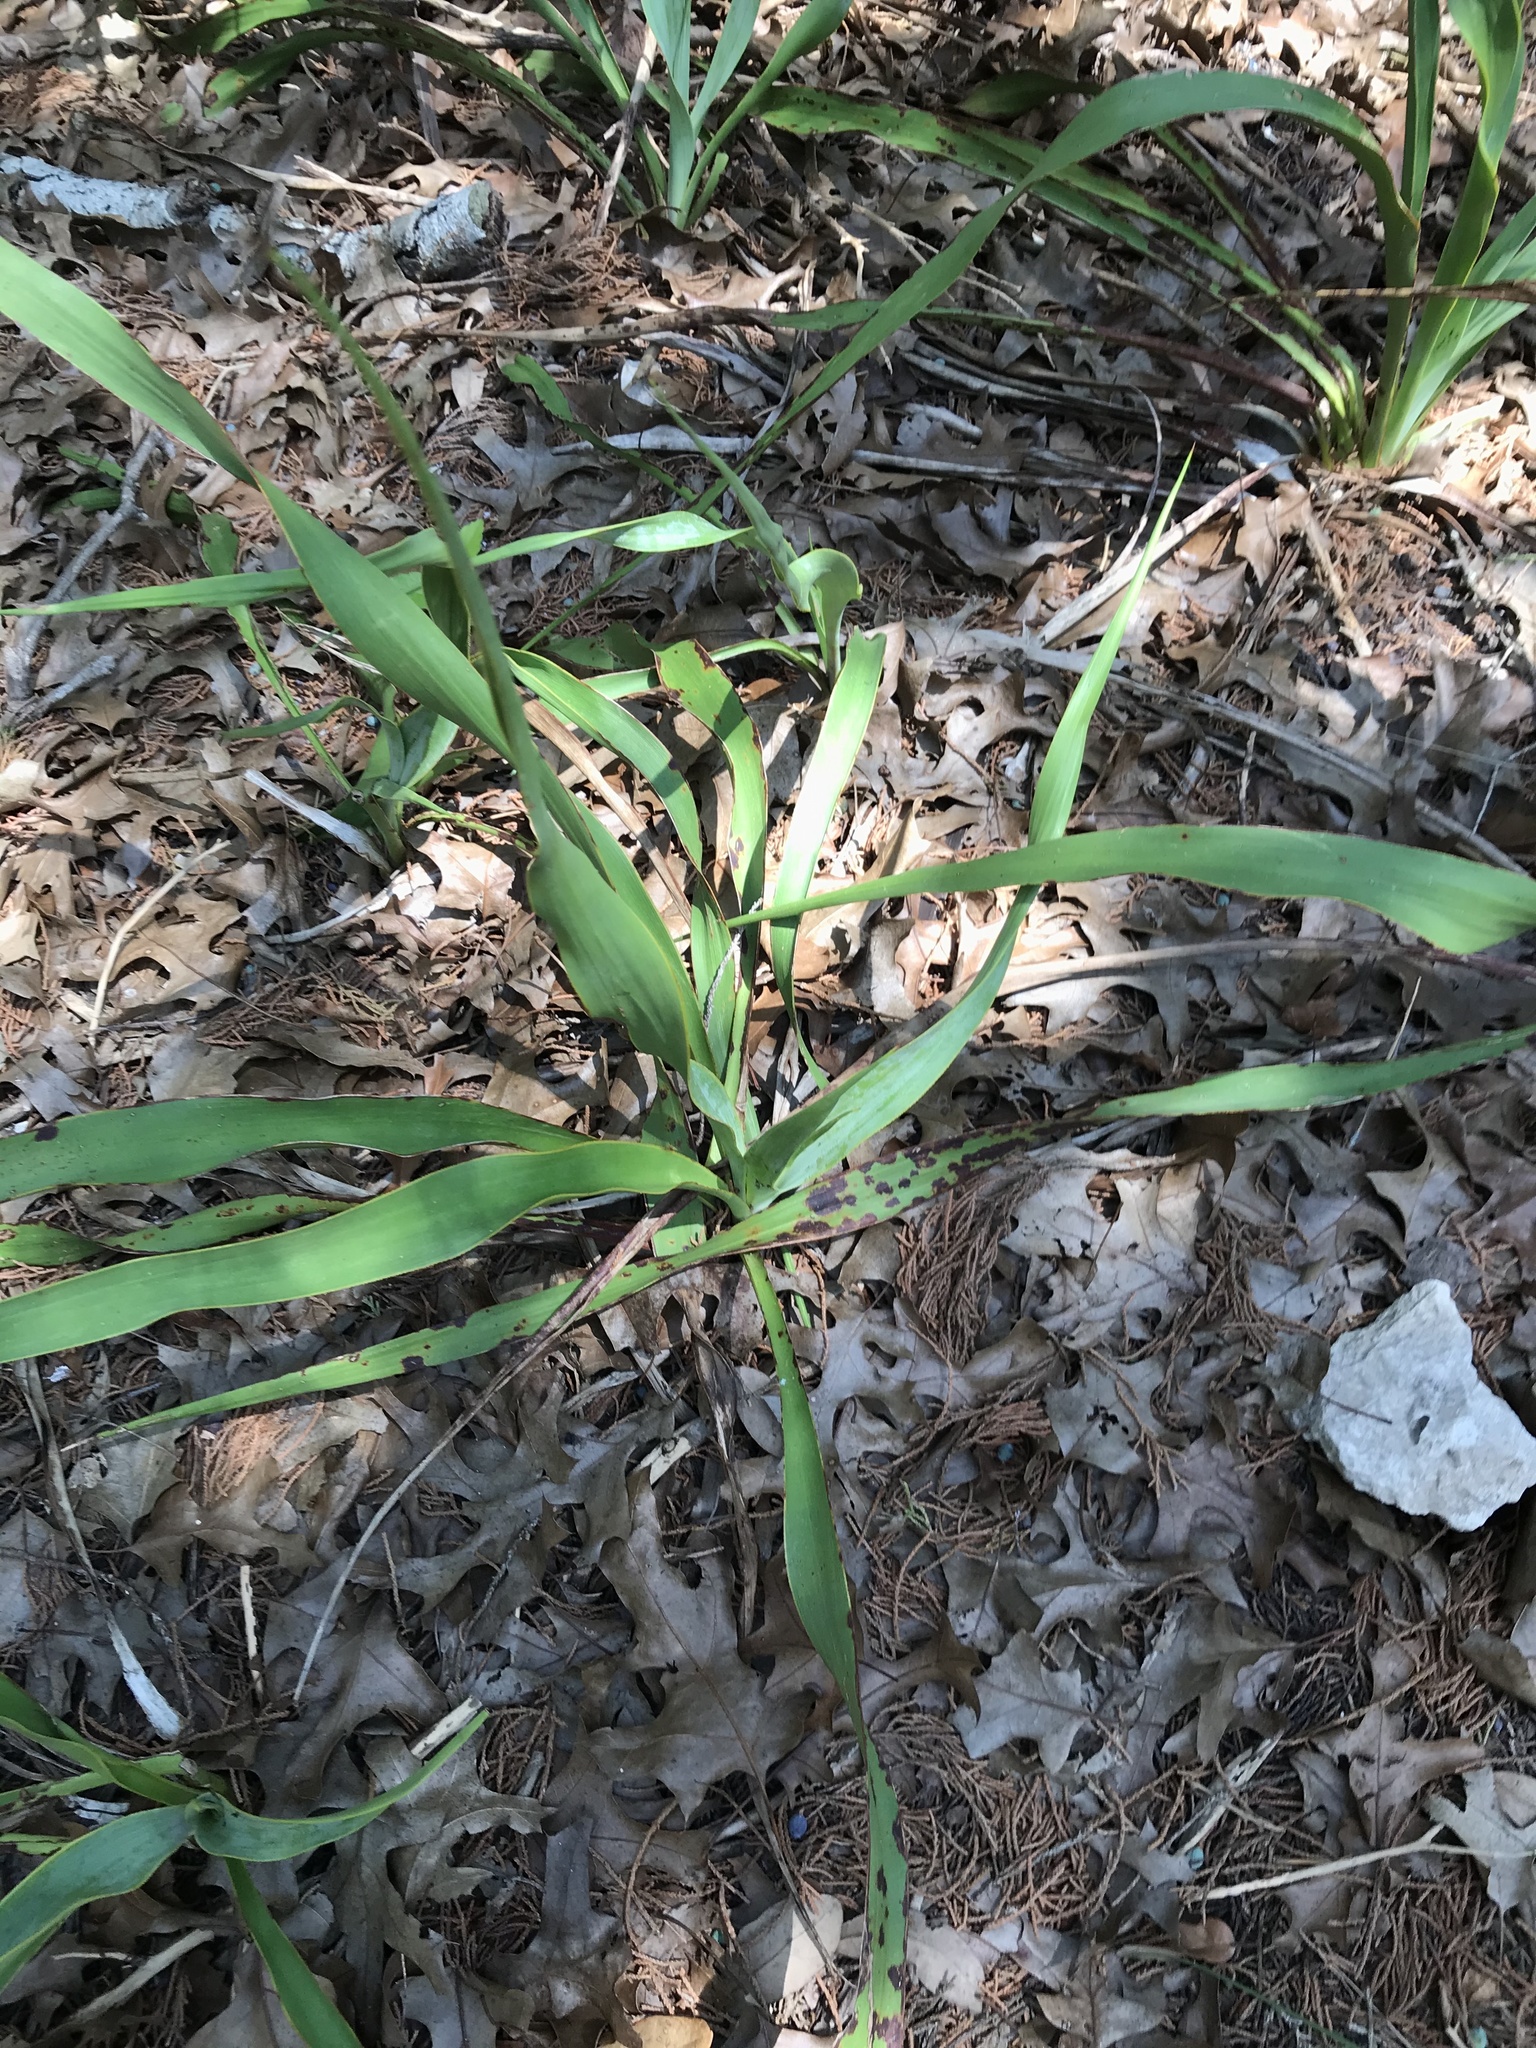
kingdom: Plantae
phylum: Tracheophyta
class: Liliopsida
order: Asparagales
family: Asparagaceae
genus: Yucca
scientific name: Yucca rupicola
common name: Twisted-leaf spanish-dagger
